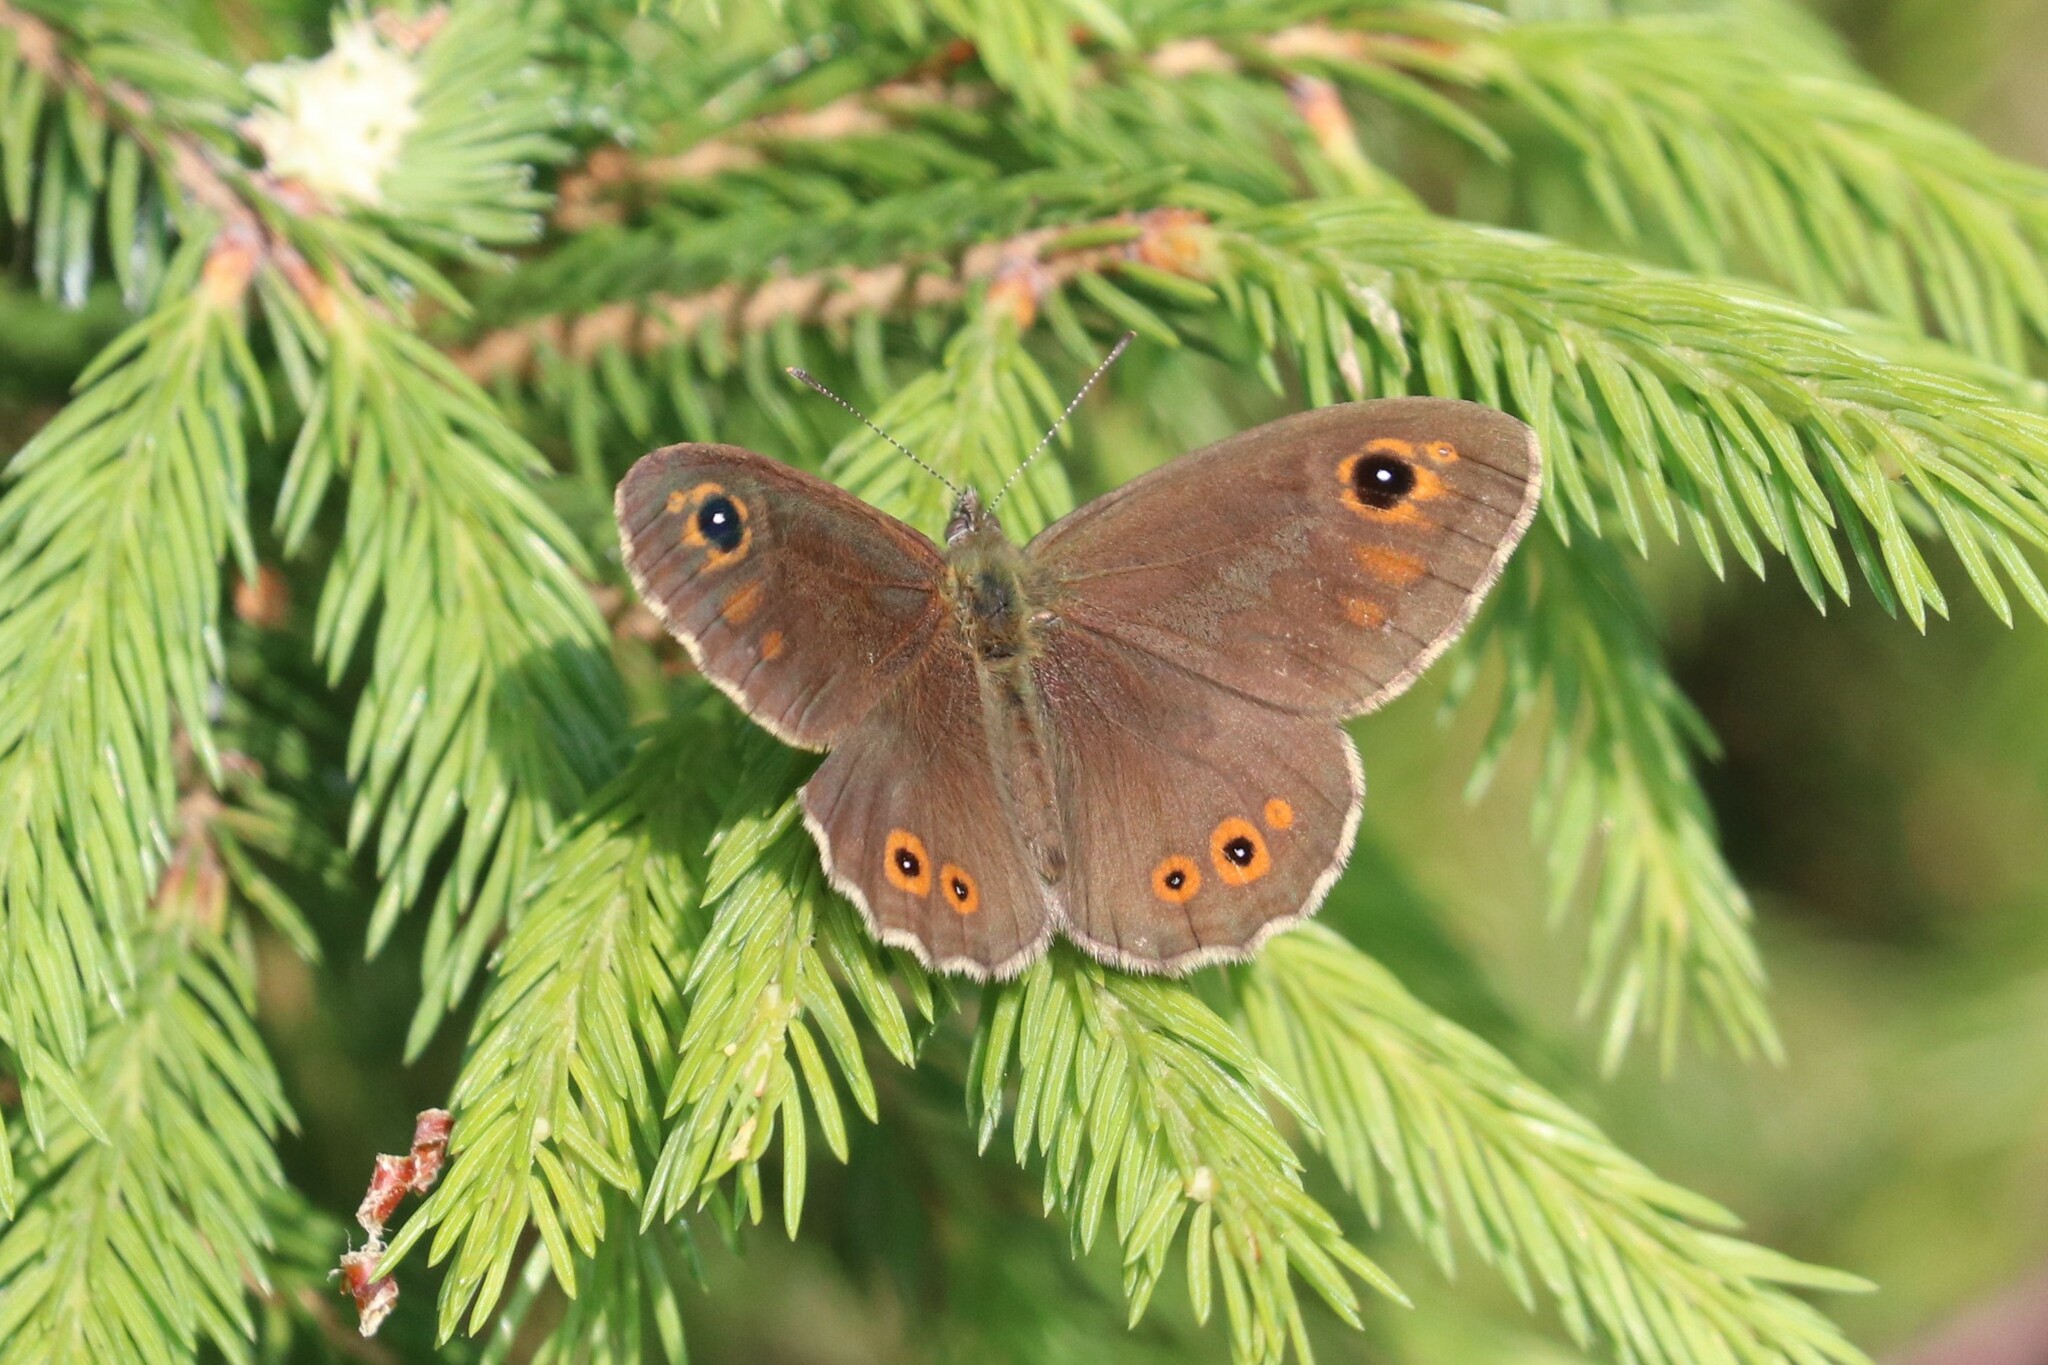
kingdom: Animalia
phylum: Arthropoda
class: Insecta
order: Lepidoptera
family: Nymphalidae
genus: Pararge
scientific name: Pararge Lasiommata maera
